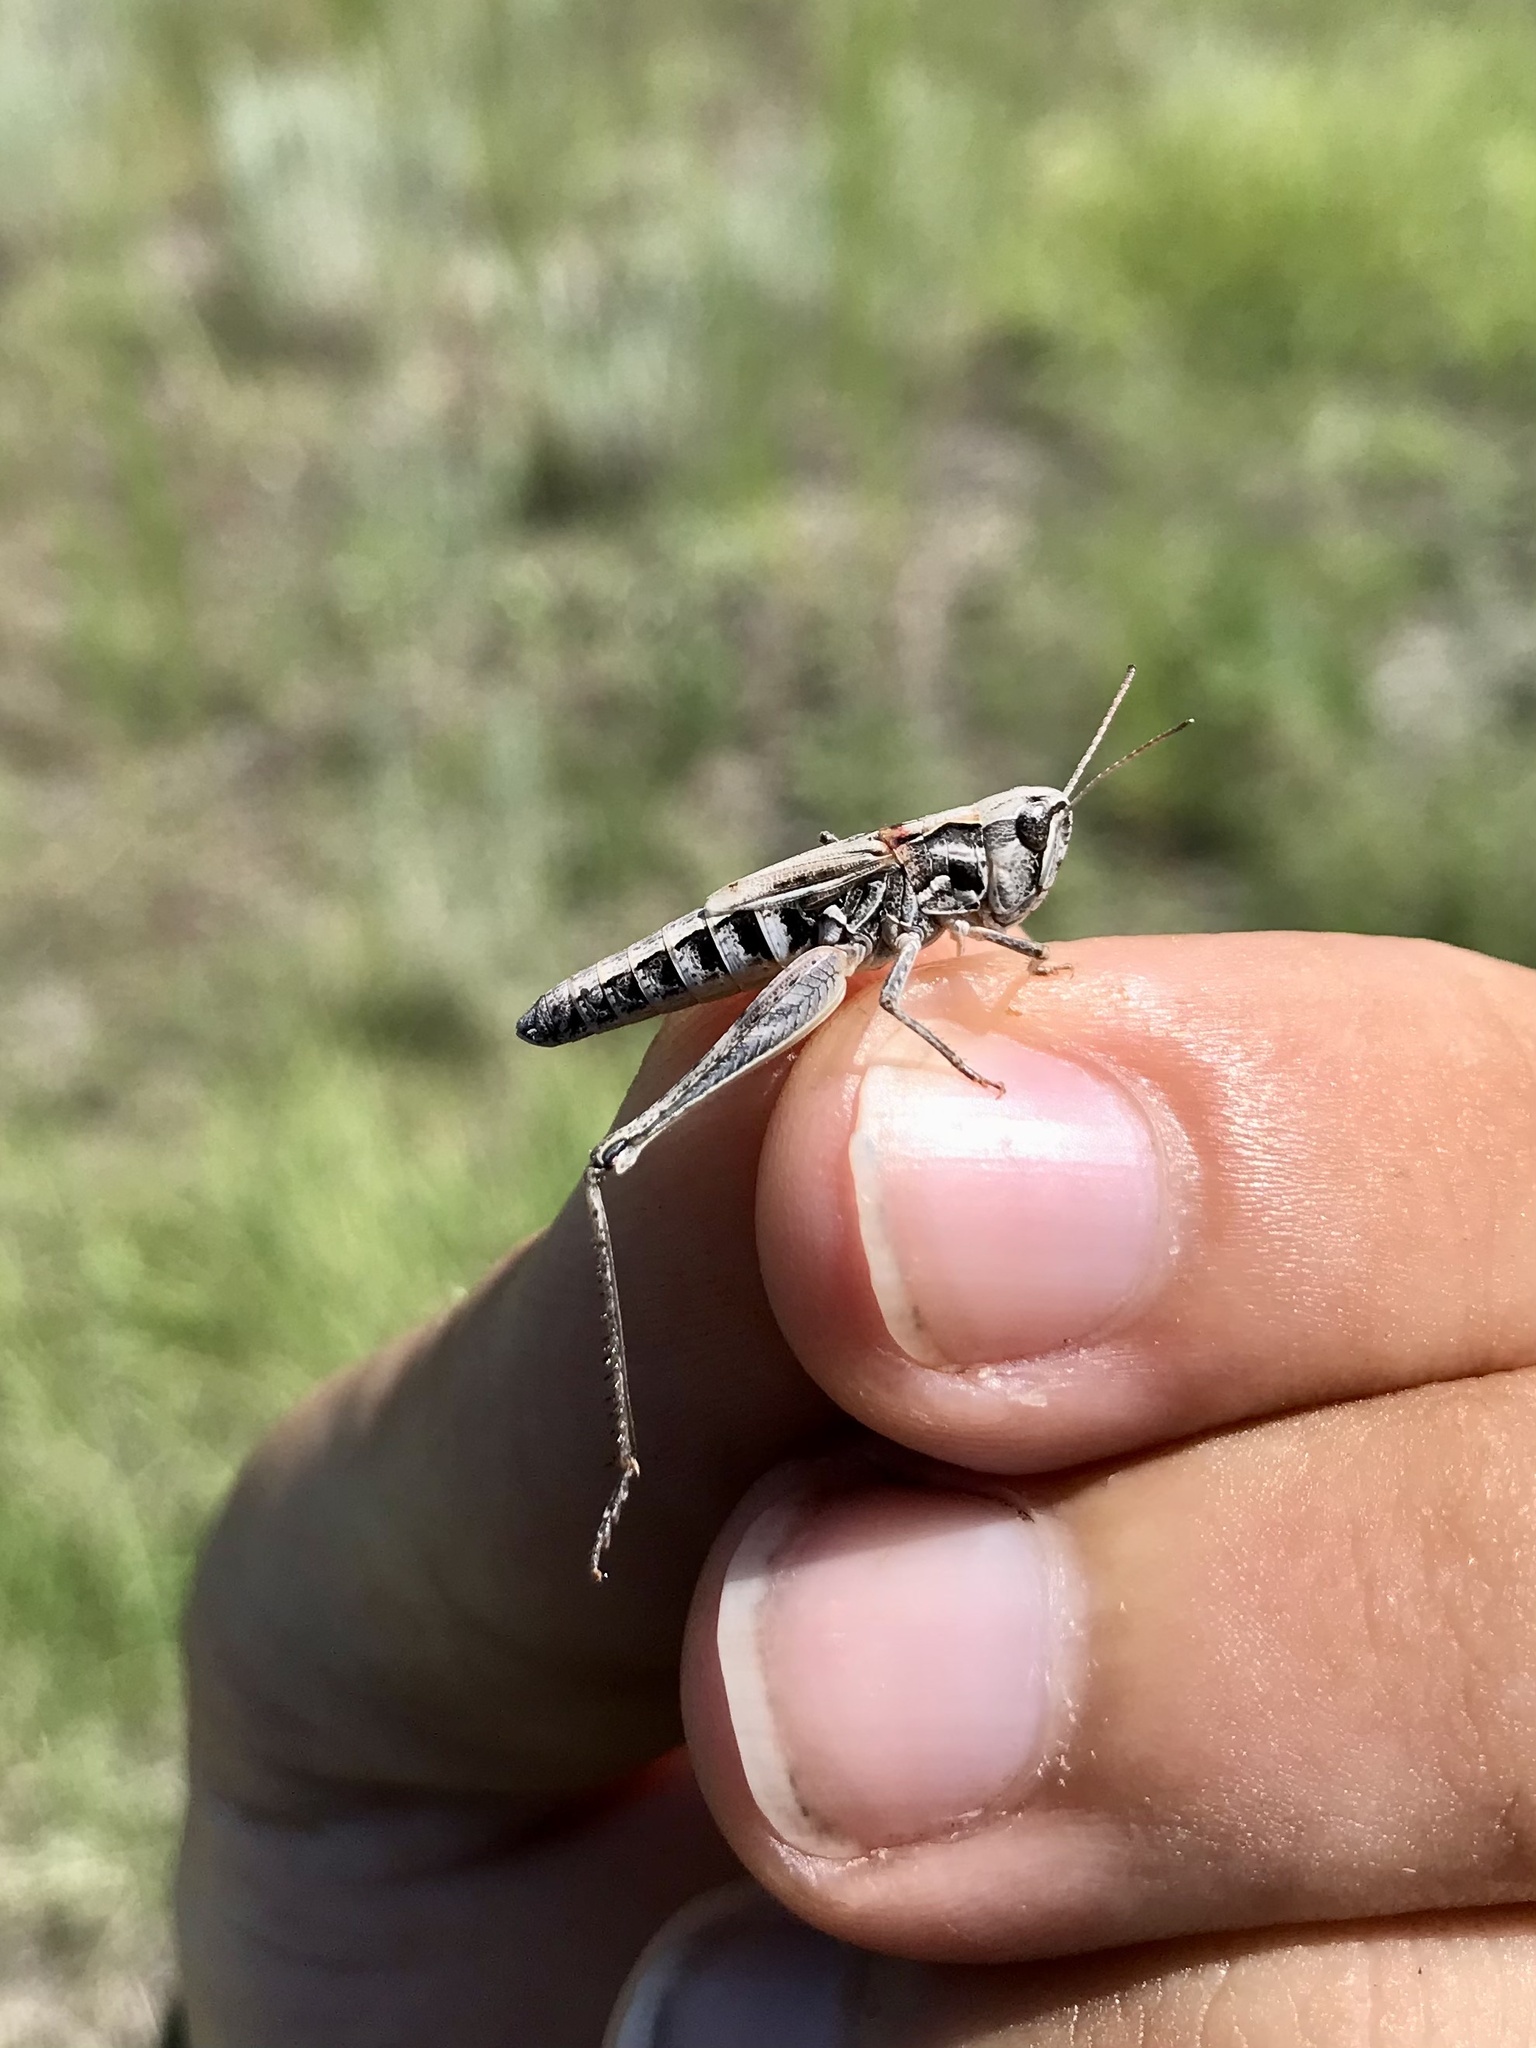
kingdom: Animalia
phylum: Arthropoda
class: Insecta
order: Orthoptera
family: Acrididae
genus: Aeropedellus
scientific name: Aeropedellus clavatus
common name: Clubhorned grasshopper
